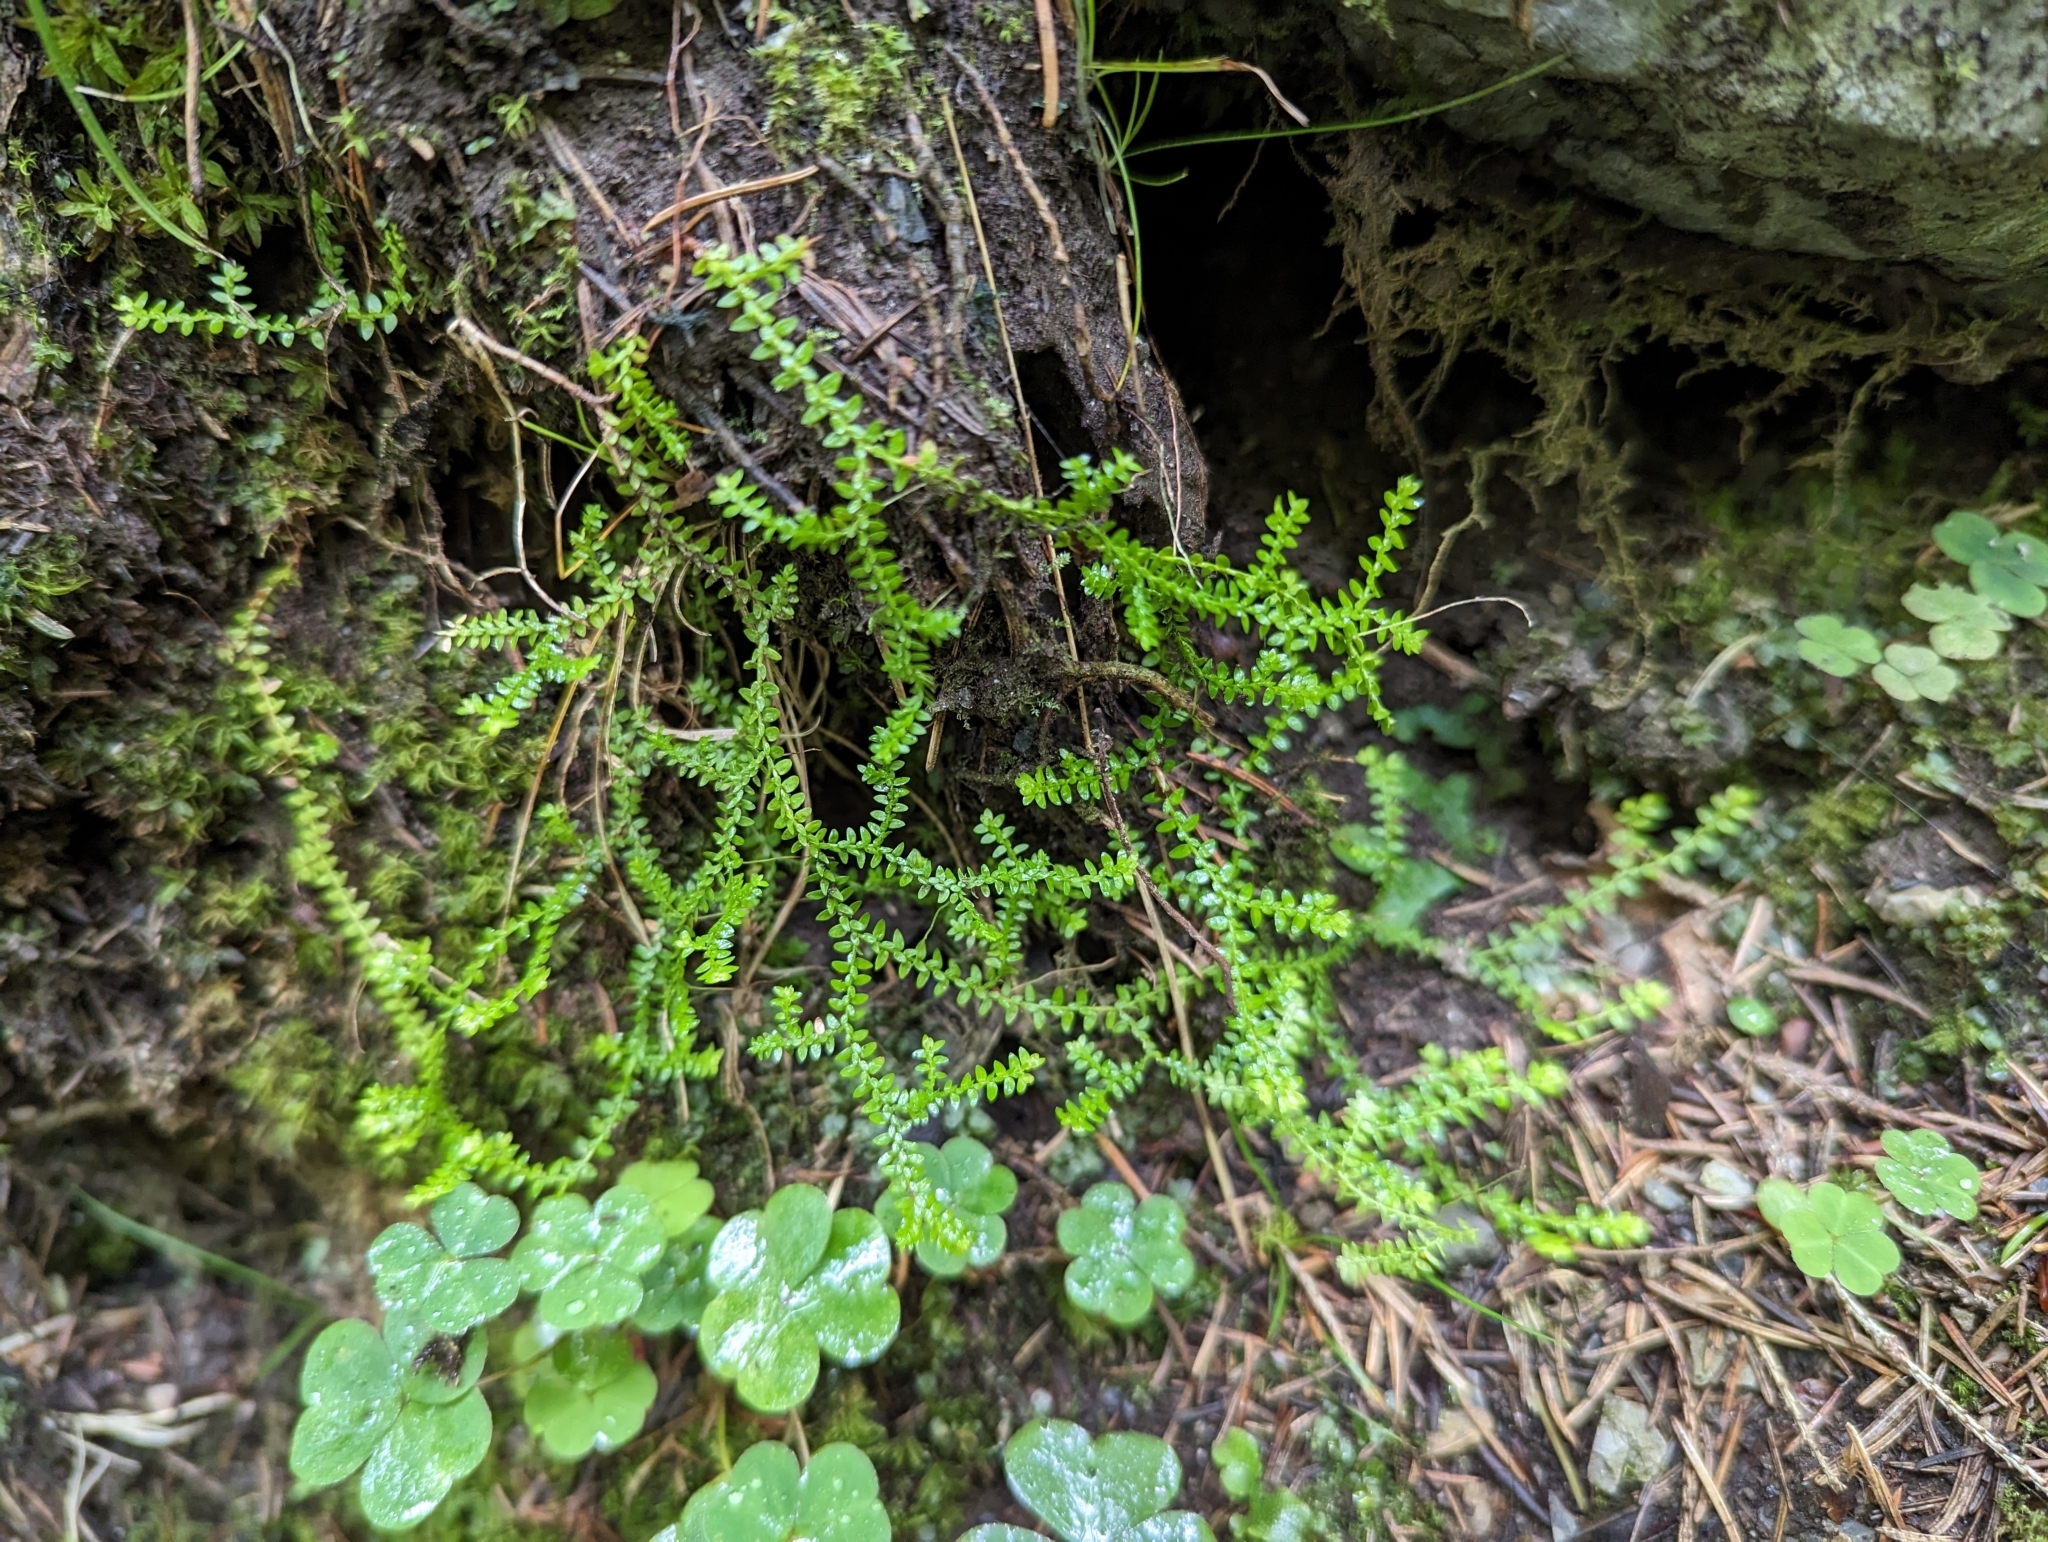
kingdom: Plantae
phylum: Tracheophyta
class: Lycopodiopsida
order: Selaginellales
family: Selaginellaceae
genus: Selaginella
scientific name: Selaginella helvetica
